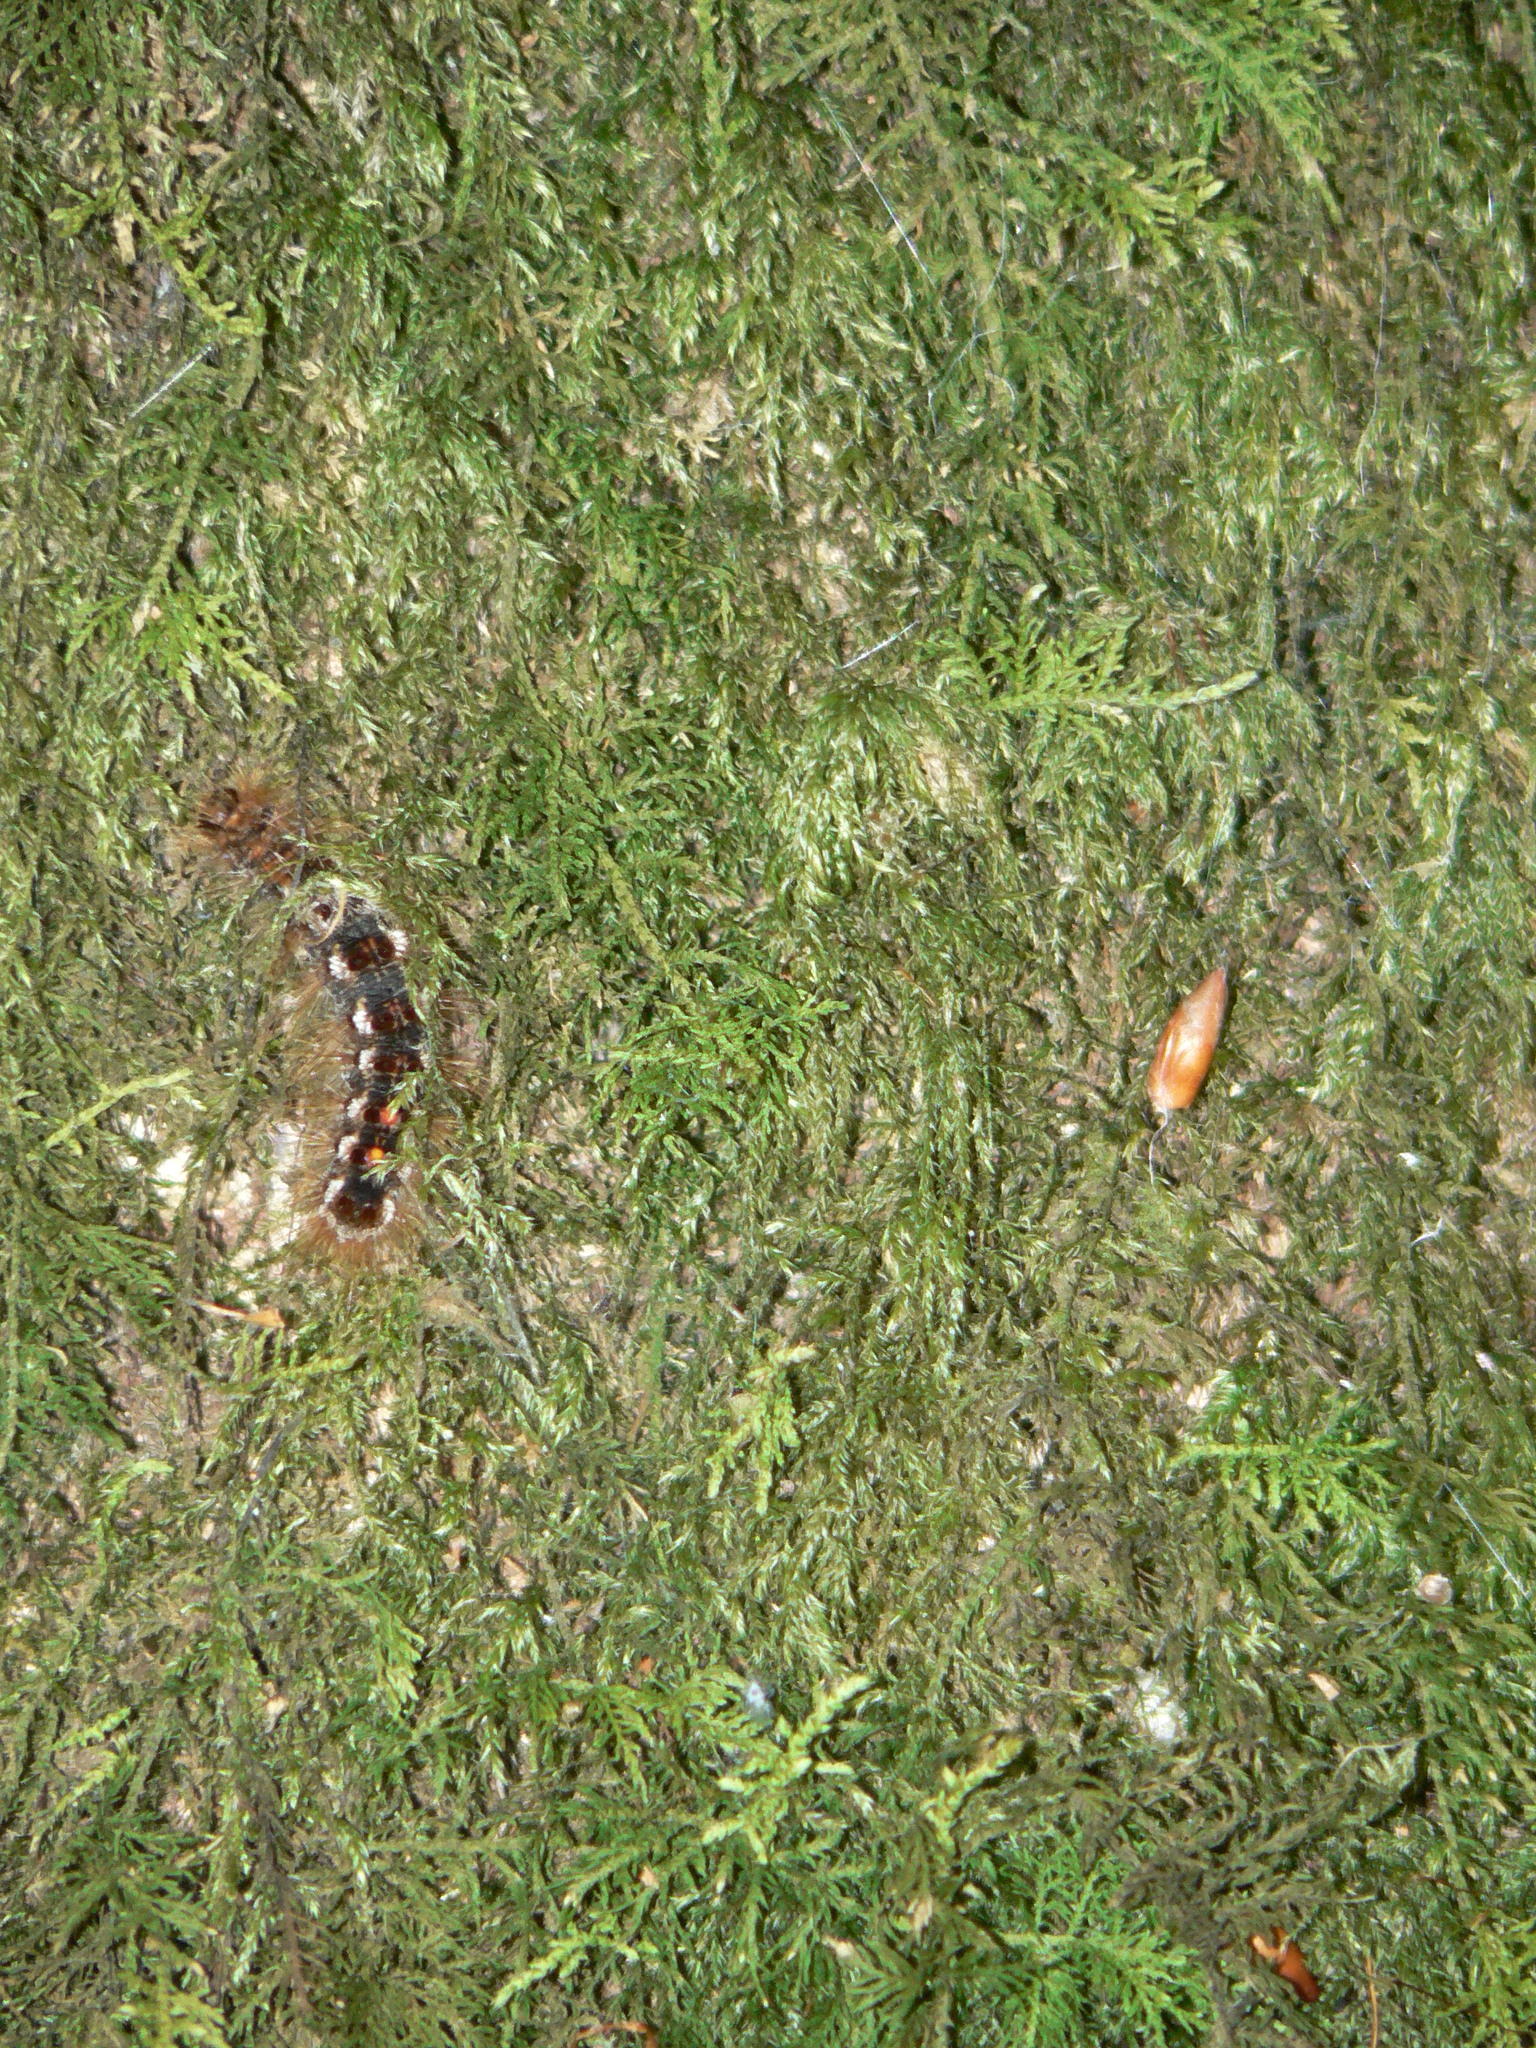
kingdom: Animalia
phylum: Arthropoda
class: Insecta
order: Lepidoptera
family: Erebidae
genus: Euproctis
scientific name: Euproctis chrysorrhoea
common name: Brown-tail
